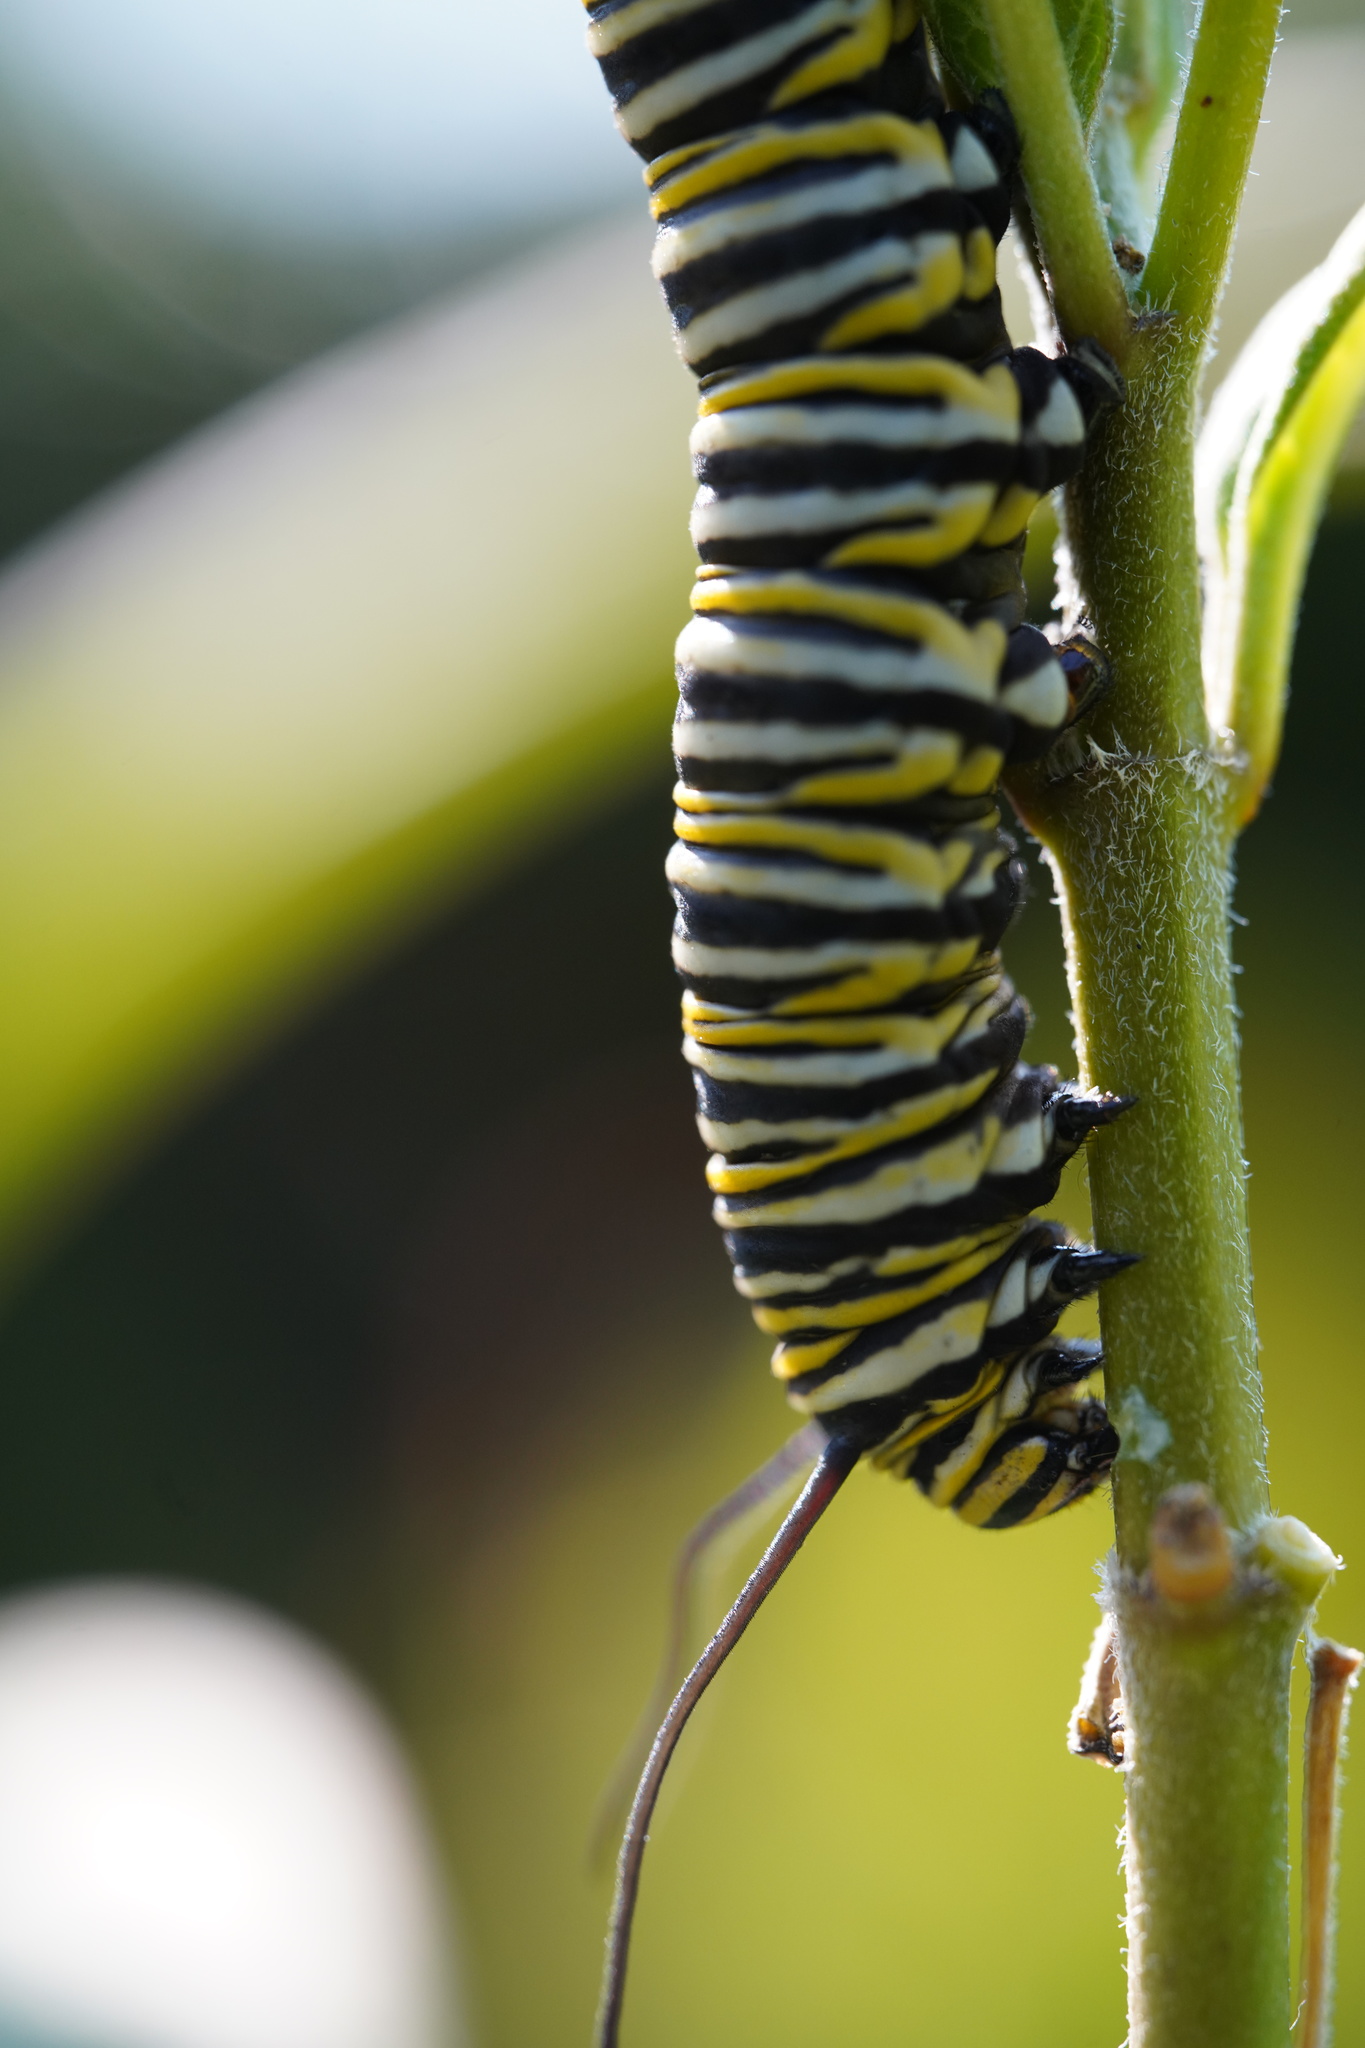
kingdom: Animalia
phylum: Arthropoda
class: Insecta
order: Lepidoptera
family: Nymphalidae
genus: Danaus
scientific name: Danaus plexippus
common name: Monarch
